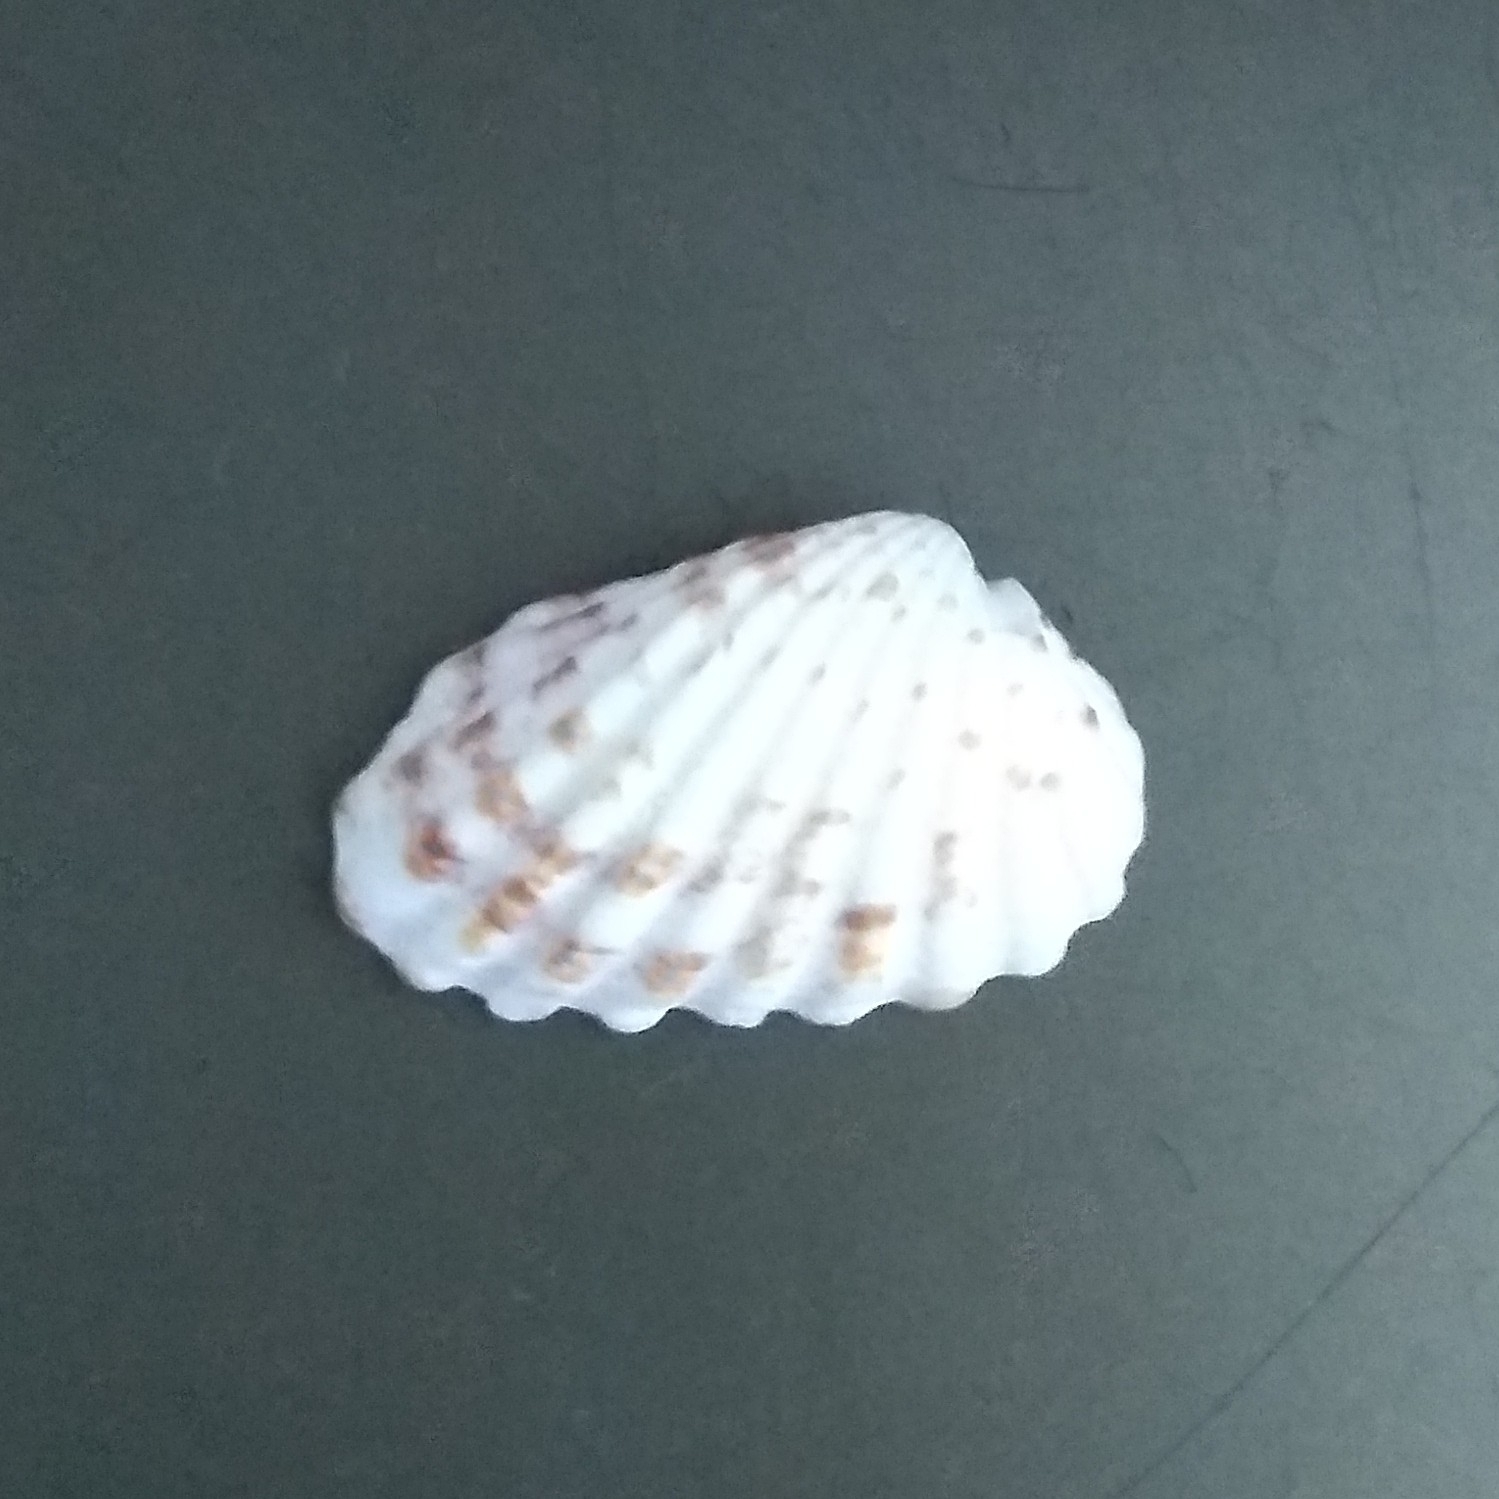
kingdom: Animalia
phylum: Mollusca
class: Bivalvia
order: Carditida
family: Carditidae
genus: Cardites
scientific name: Cardites floridanus
